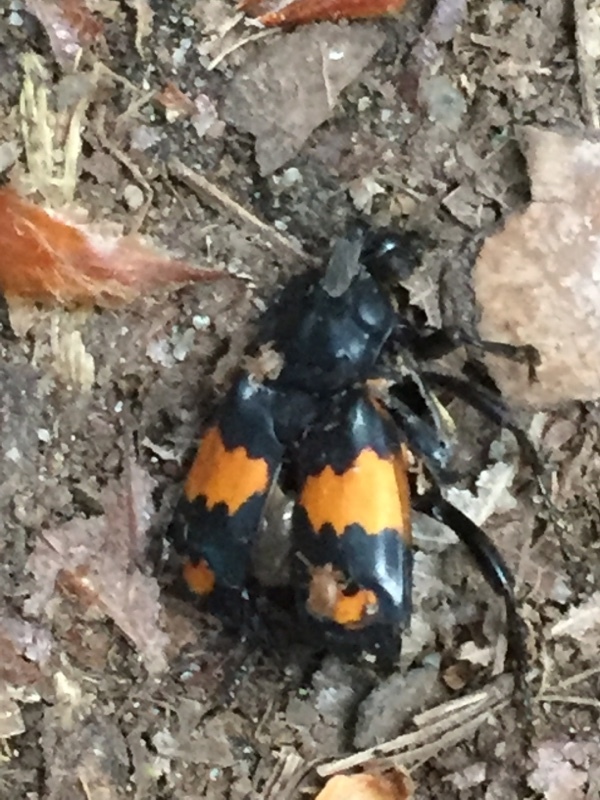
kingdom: Animalia
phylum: Arthropoda
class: Insecta
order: Coleoptera
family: Staphylinidae
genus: Nicrophorus
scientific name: Nicrophorus vespilloides
